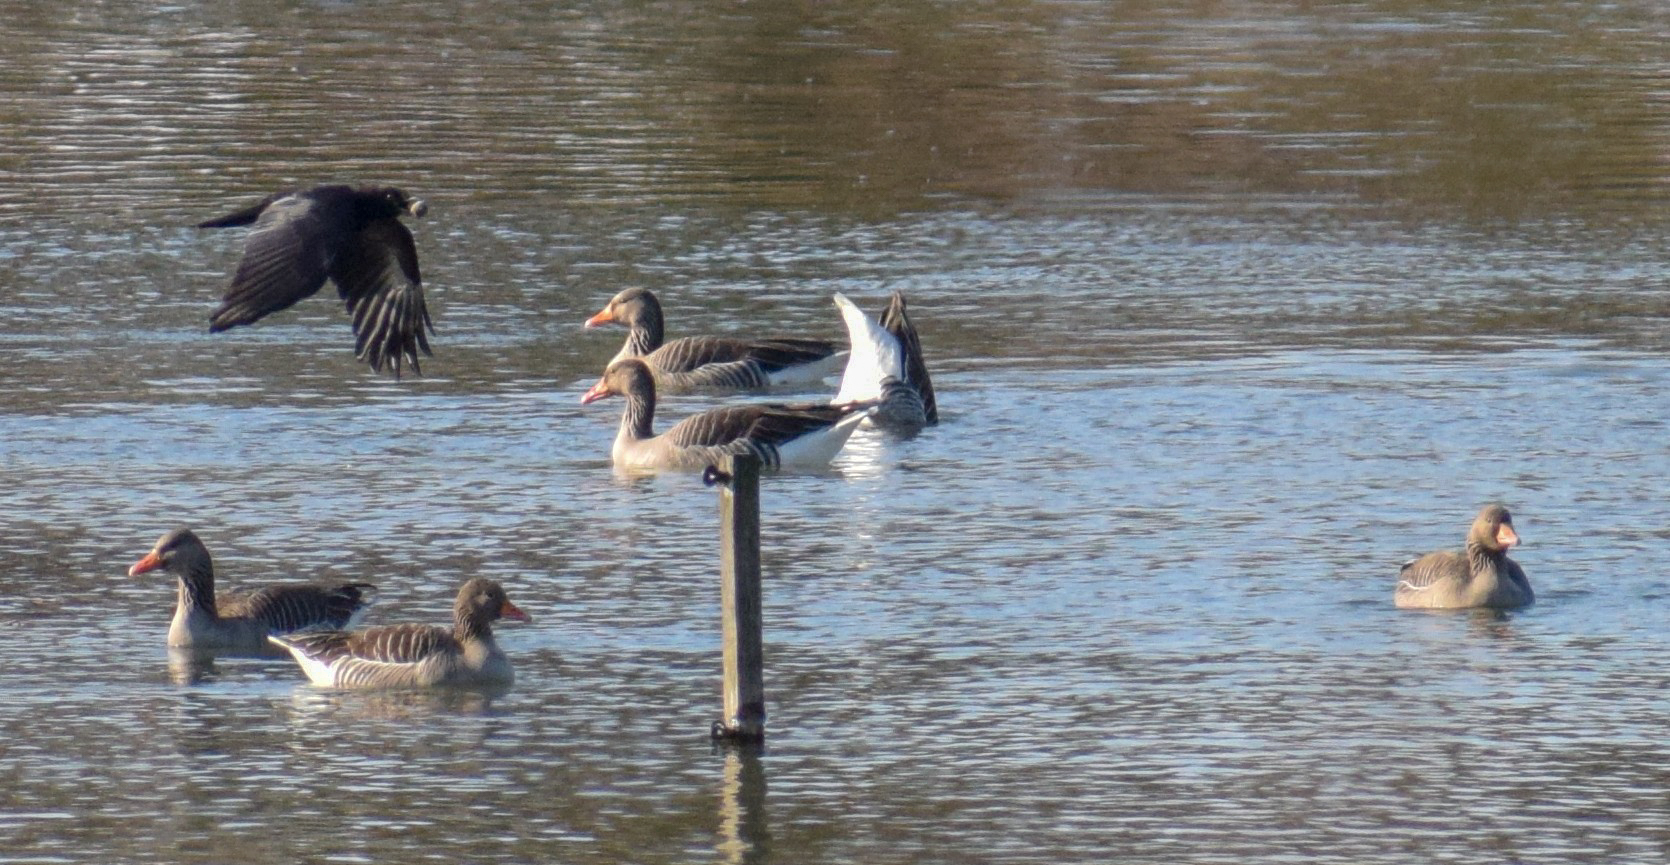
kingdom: Animalia
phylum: Chordata
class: Aves
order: Anseriformes
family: Anatidae
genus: Anser
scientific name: Anser anser
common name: Greylag goose
